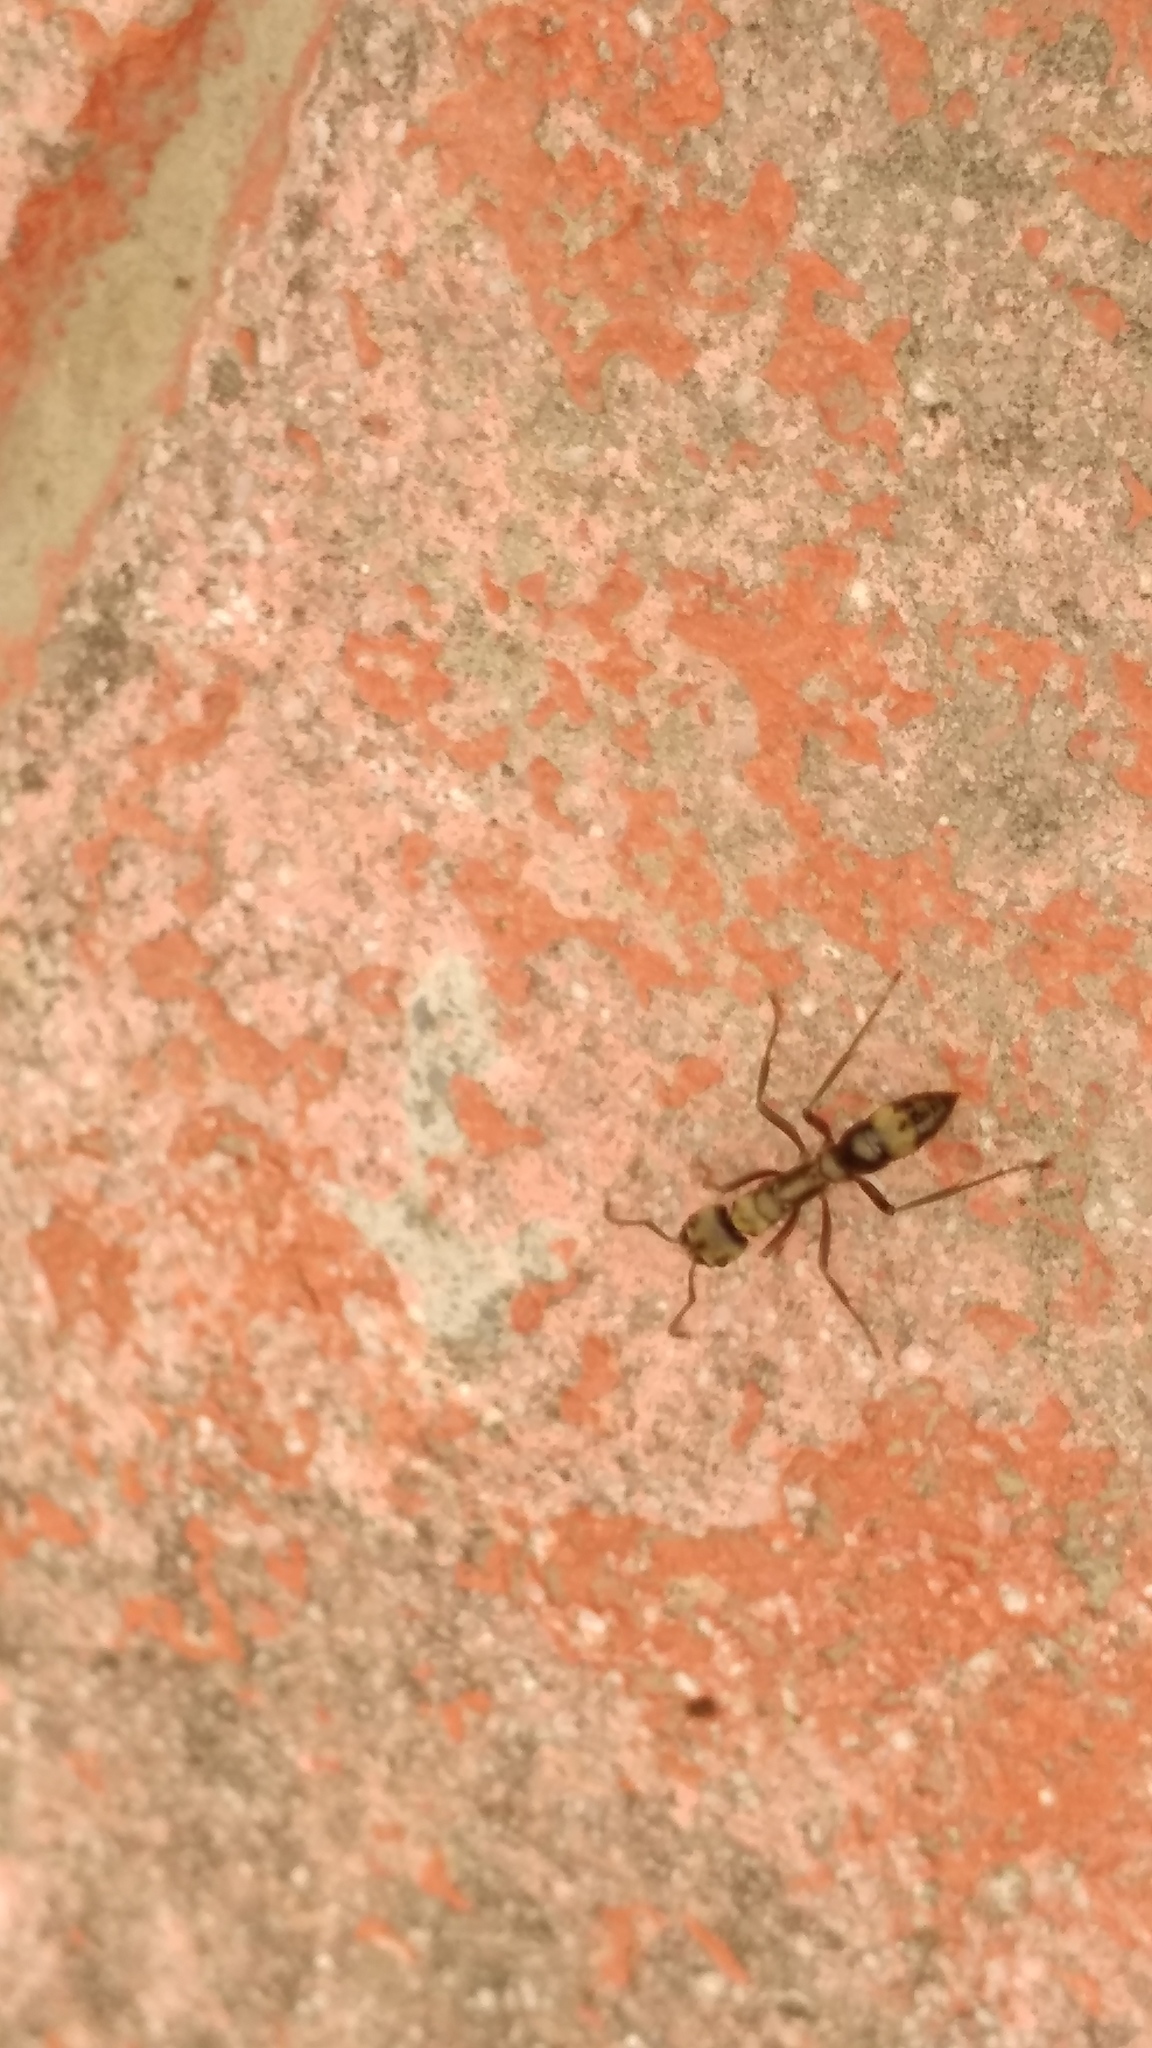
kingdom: Animalia
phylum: Arthropoda
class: Insecta
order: Hymenoptera
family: Formicidae
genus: Pachycondyla
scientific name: Pachycondyla villosa
